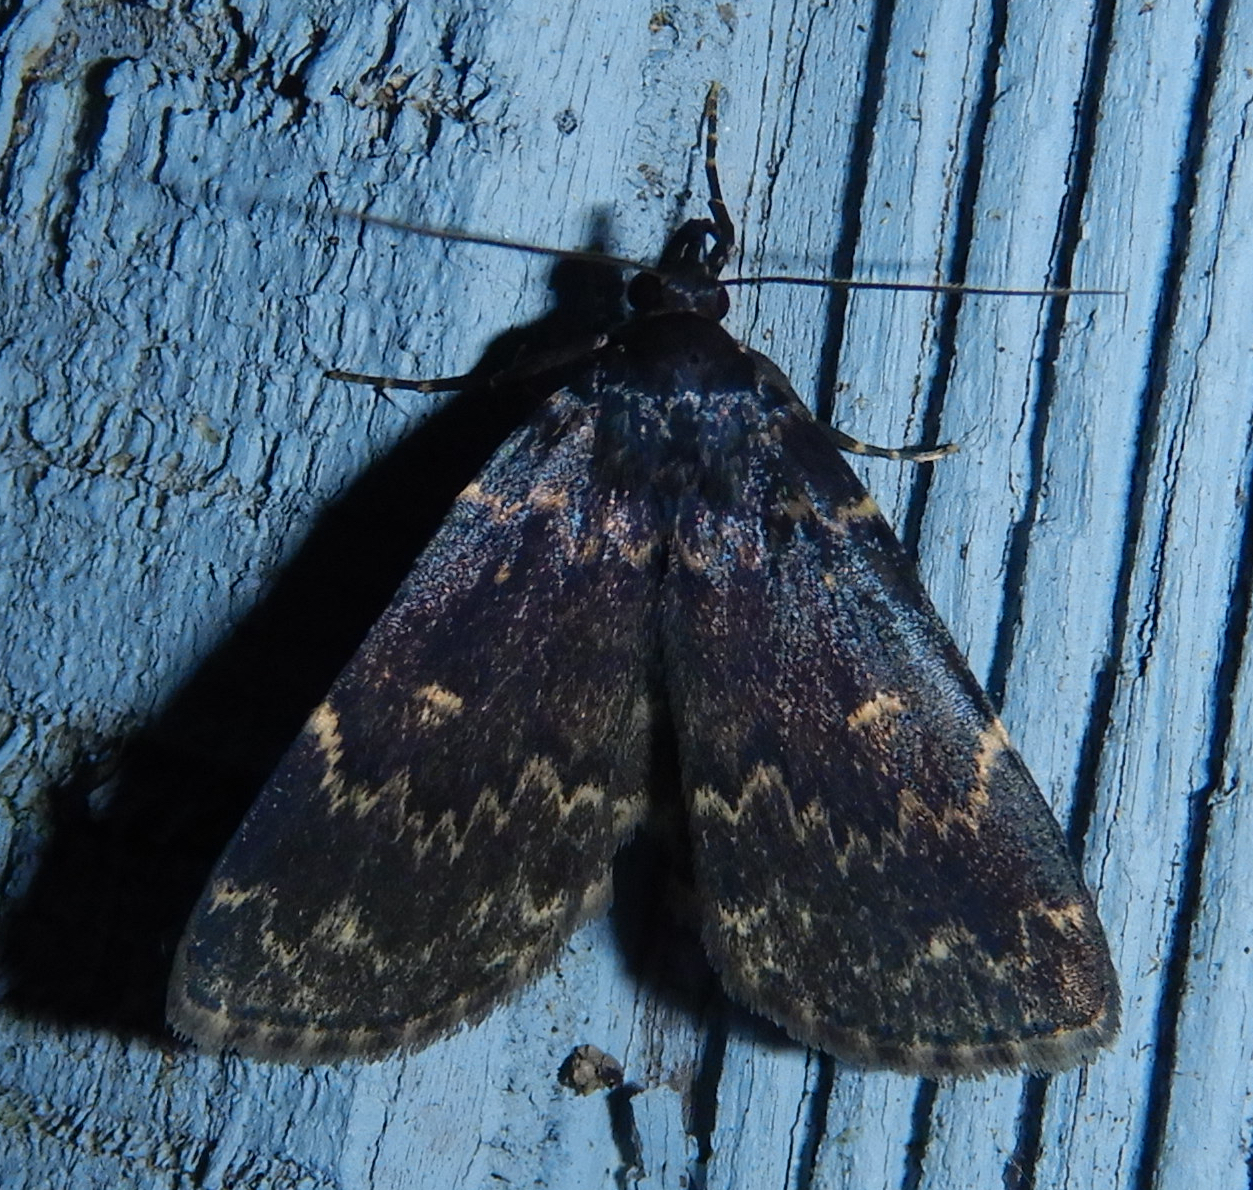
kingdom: Animalia
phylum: Arthropoda
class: Insecta
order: Lepidoptera
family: Erebidae
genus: Idia
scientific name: Idia lubricalis
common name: Twin-striped tabby
